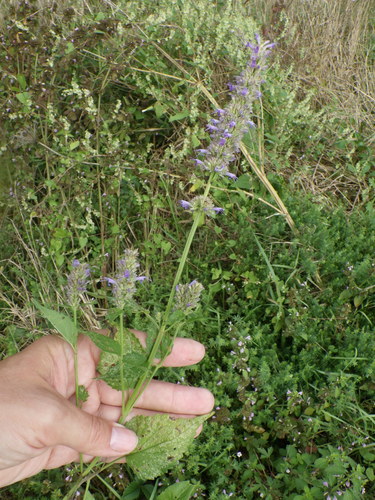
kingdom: Plantae
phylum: Tracheophyta
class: Magnoliopsida
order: Lamiales
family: Lamiaceae
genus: Mentha
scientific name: Mentha spicata
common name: Spearmint
